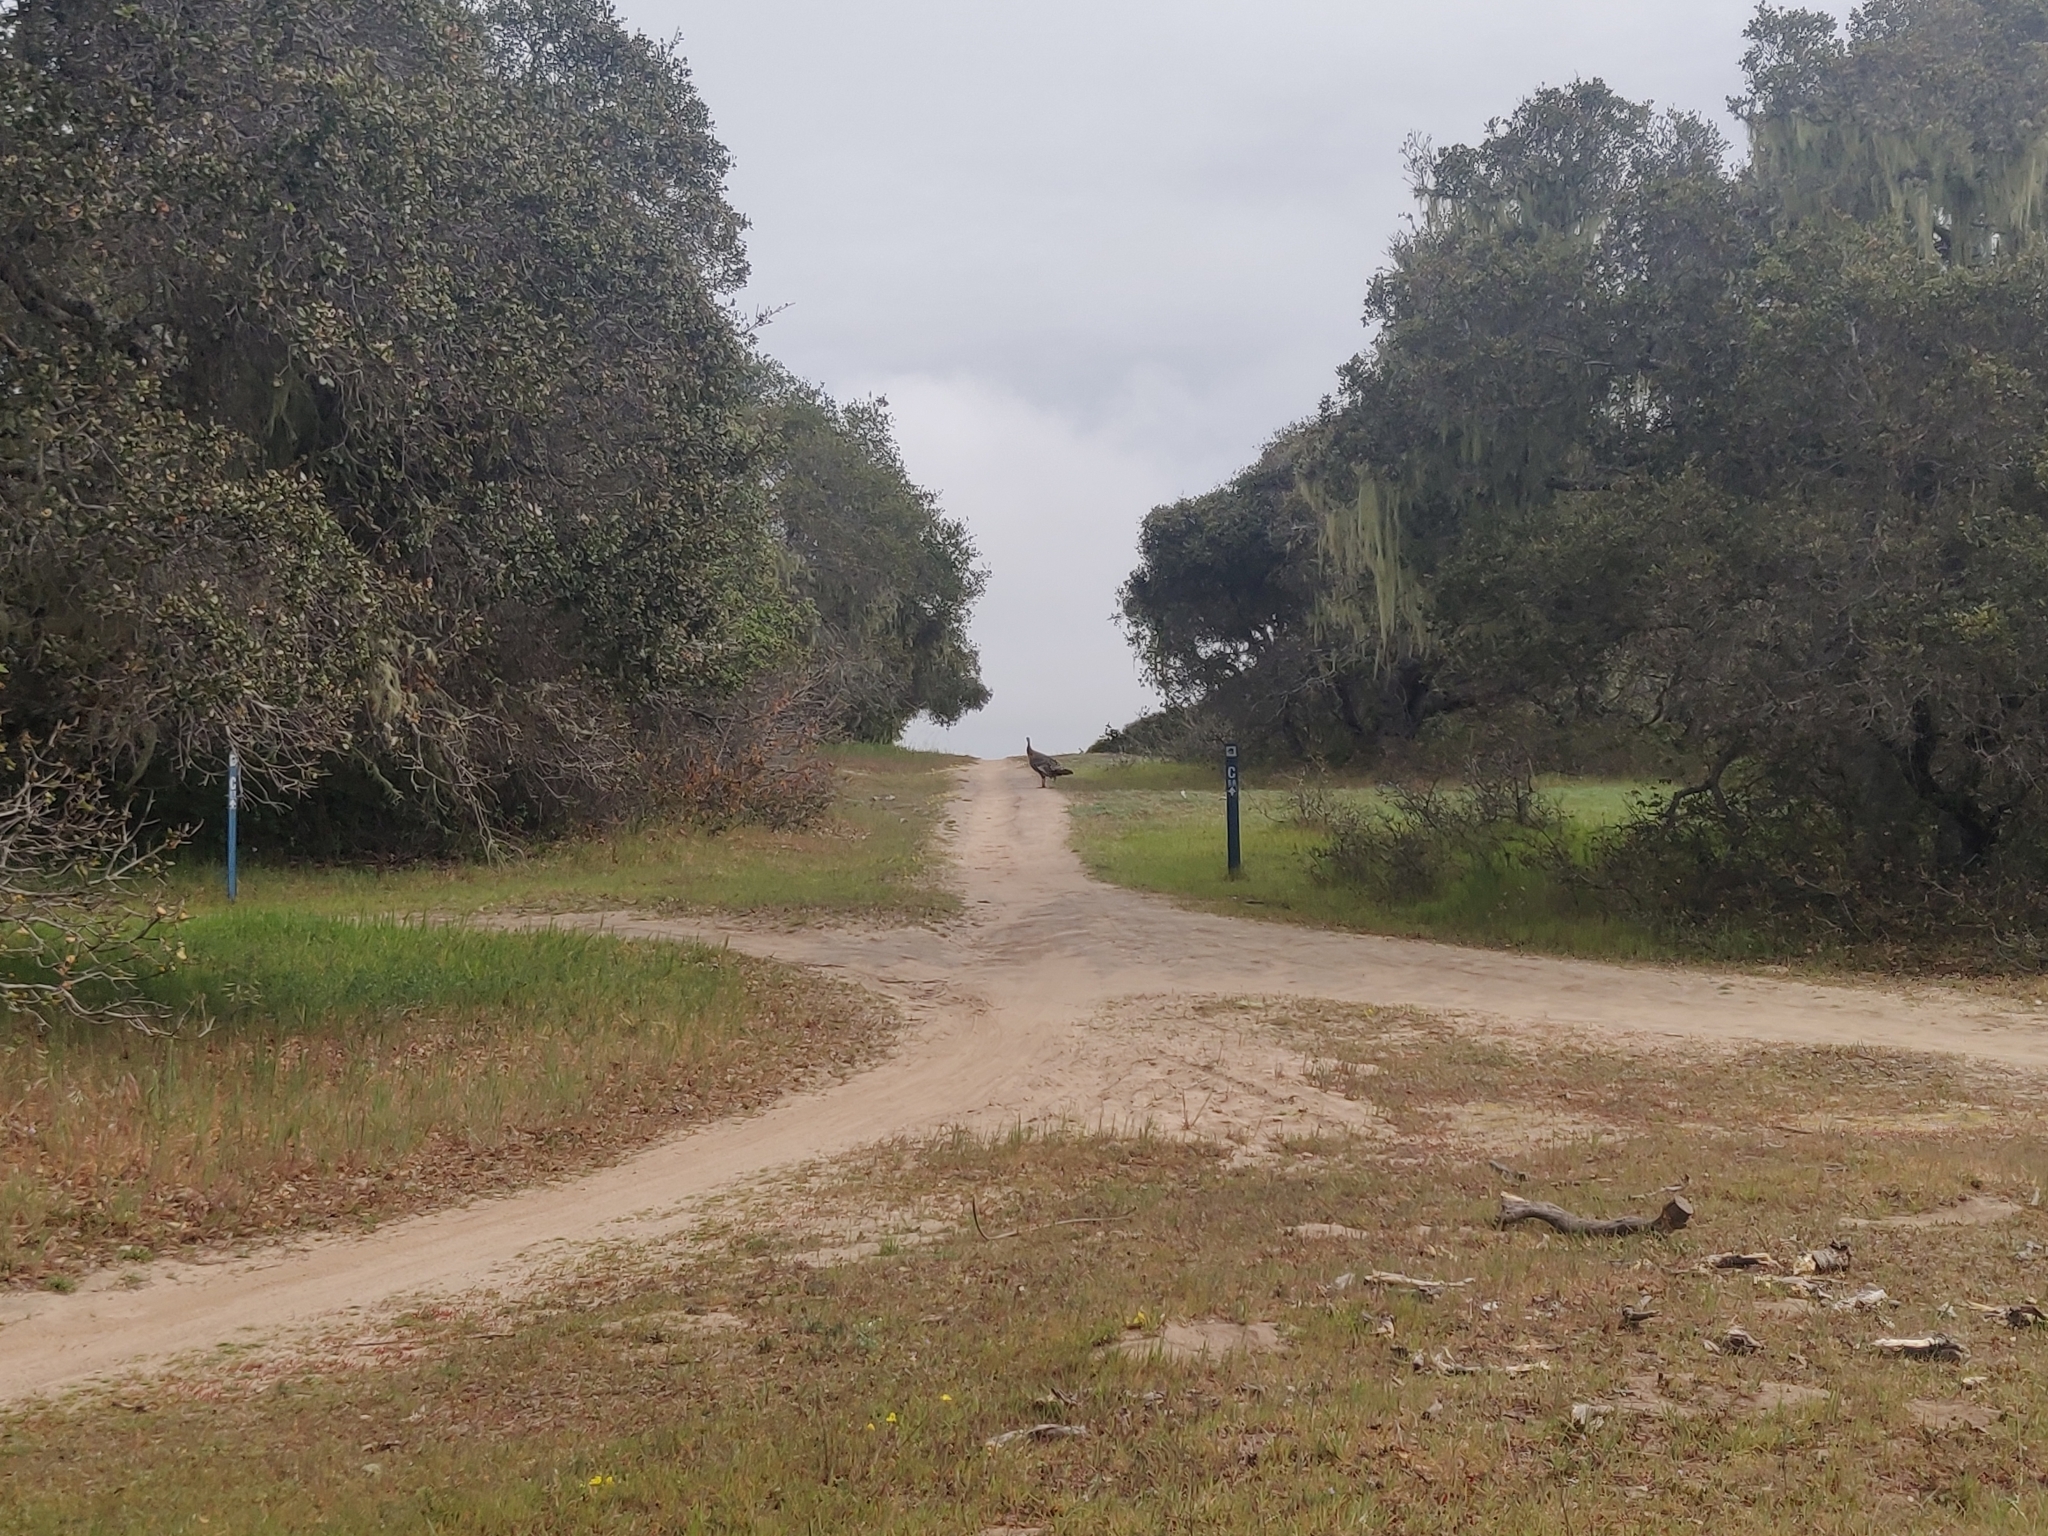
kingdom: Animalia
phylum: Chordata
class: Aves
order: Galliformes
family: Phasianidae
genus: Meleagris
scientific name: Meleagris gallopavo
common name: Wild turkey
